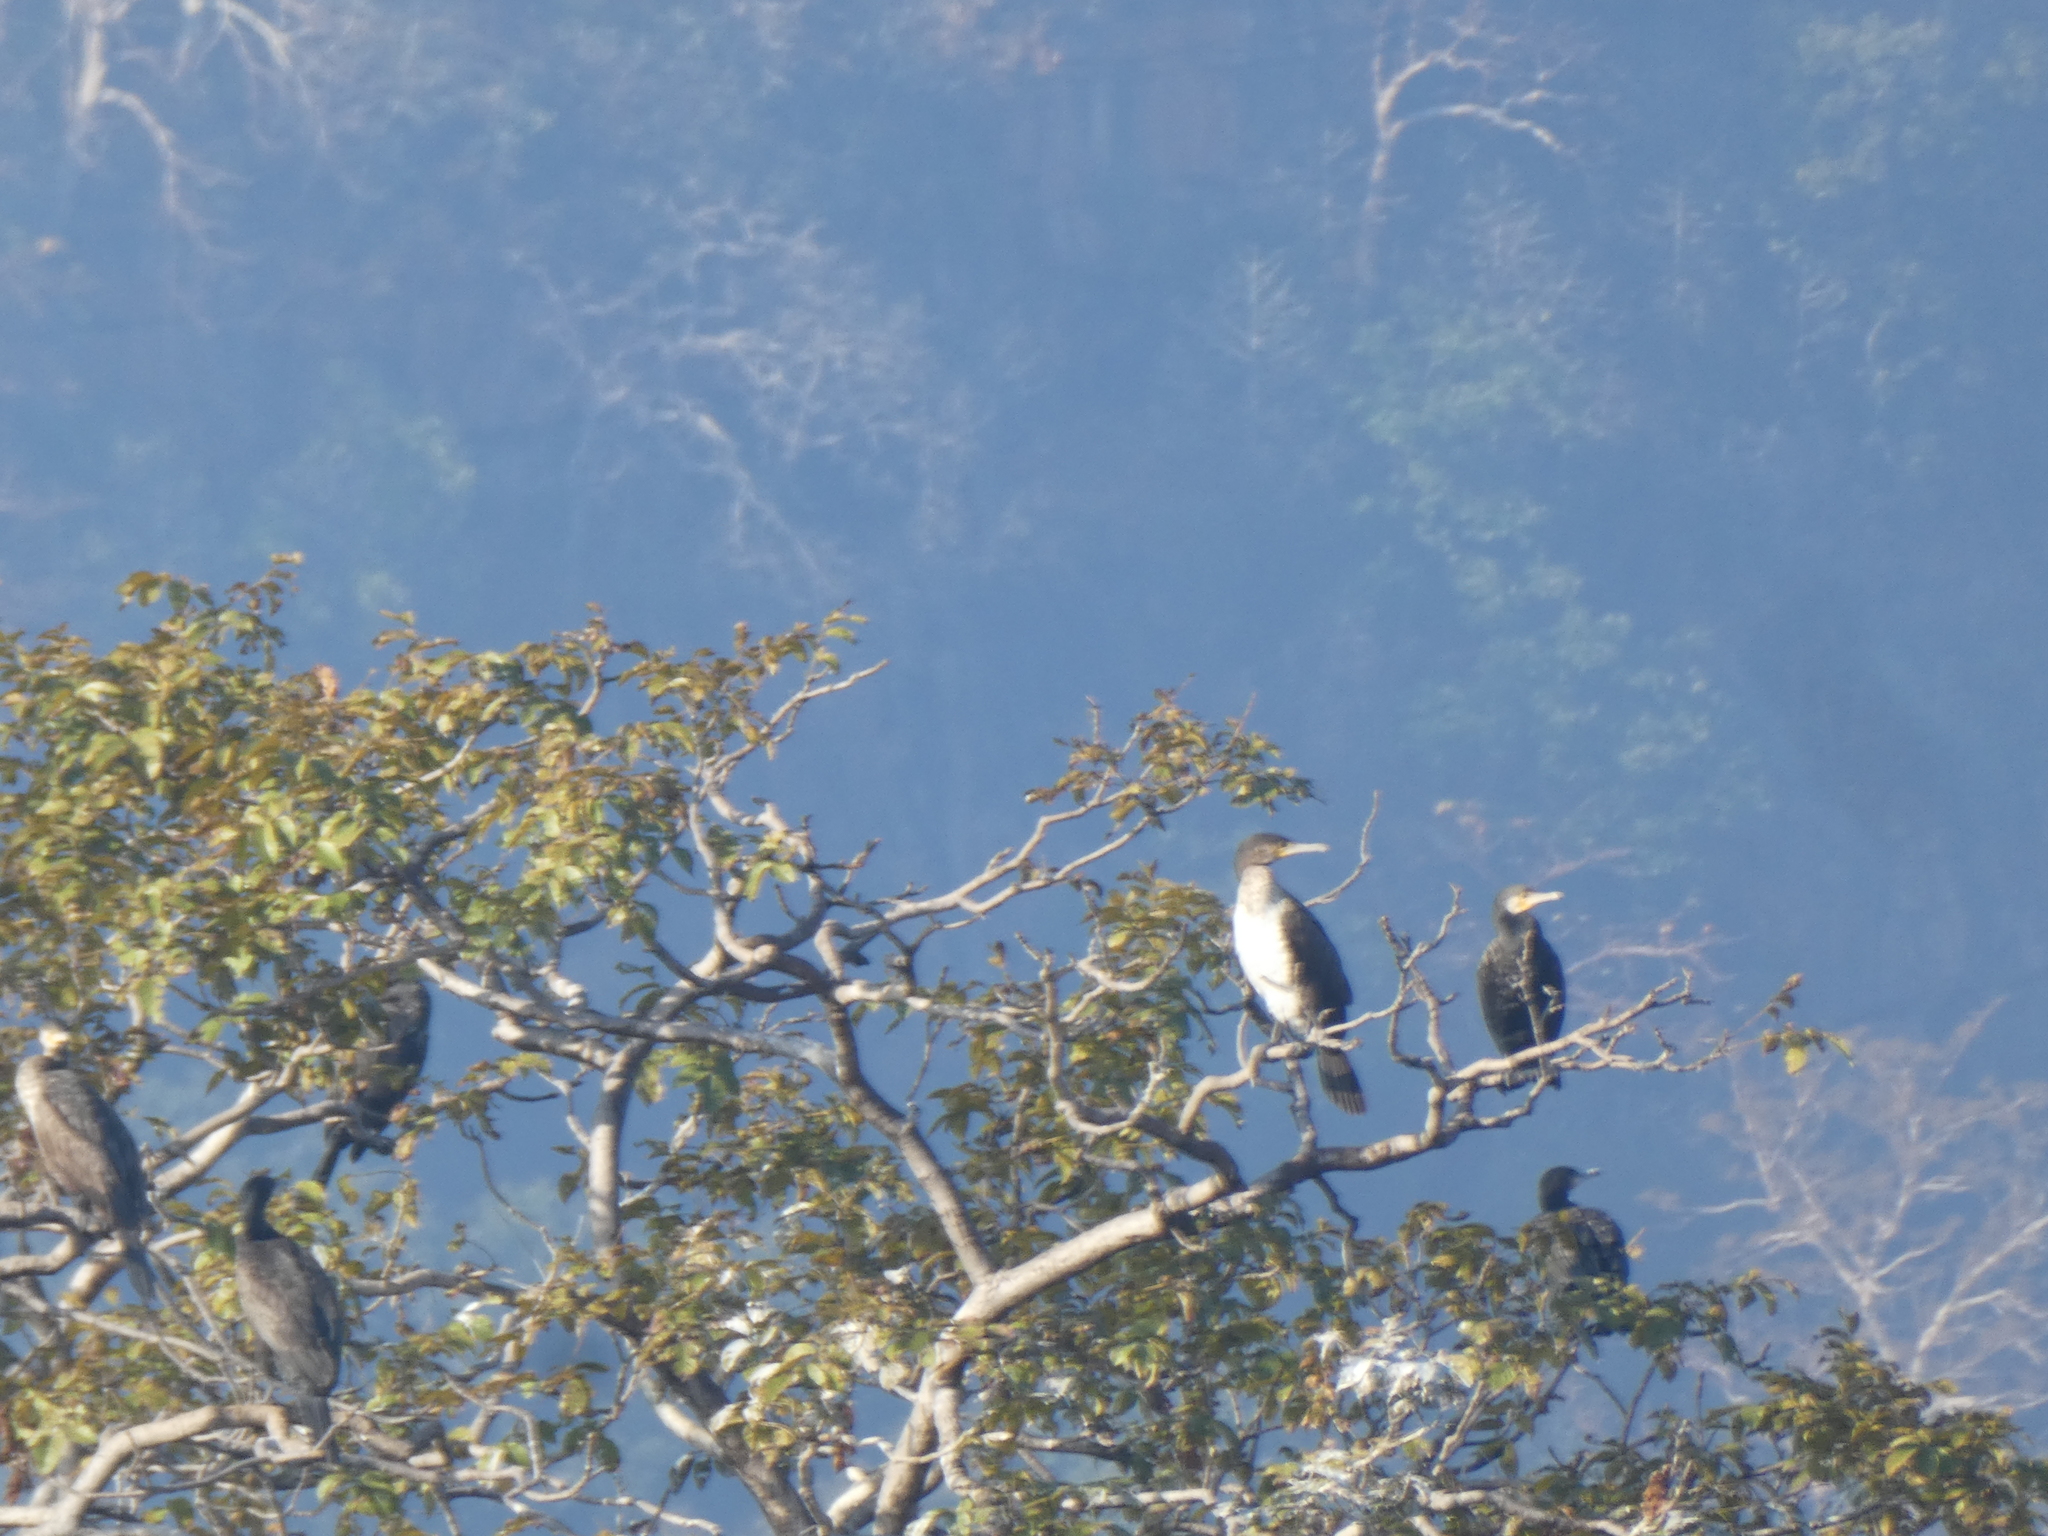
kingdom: Animalia
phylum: Chordata
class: Aves
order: Suliformes
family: Phalacrocoracidae
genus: Phalacrocorax
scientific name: Phalacrocorax carbo
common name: Great cormorant
